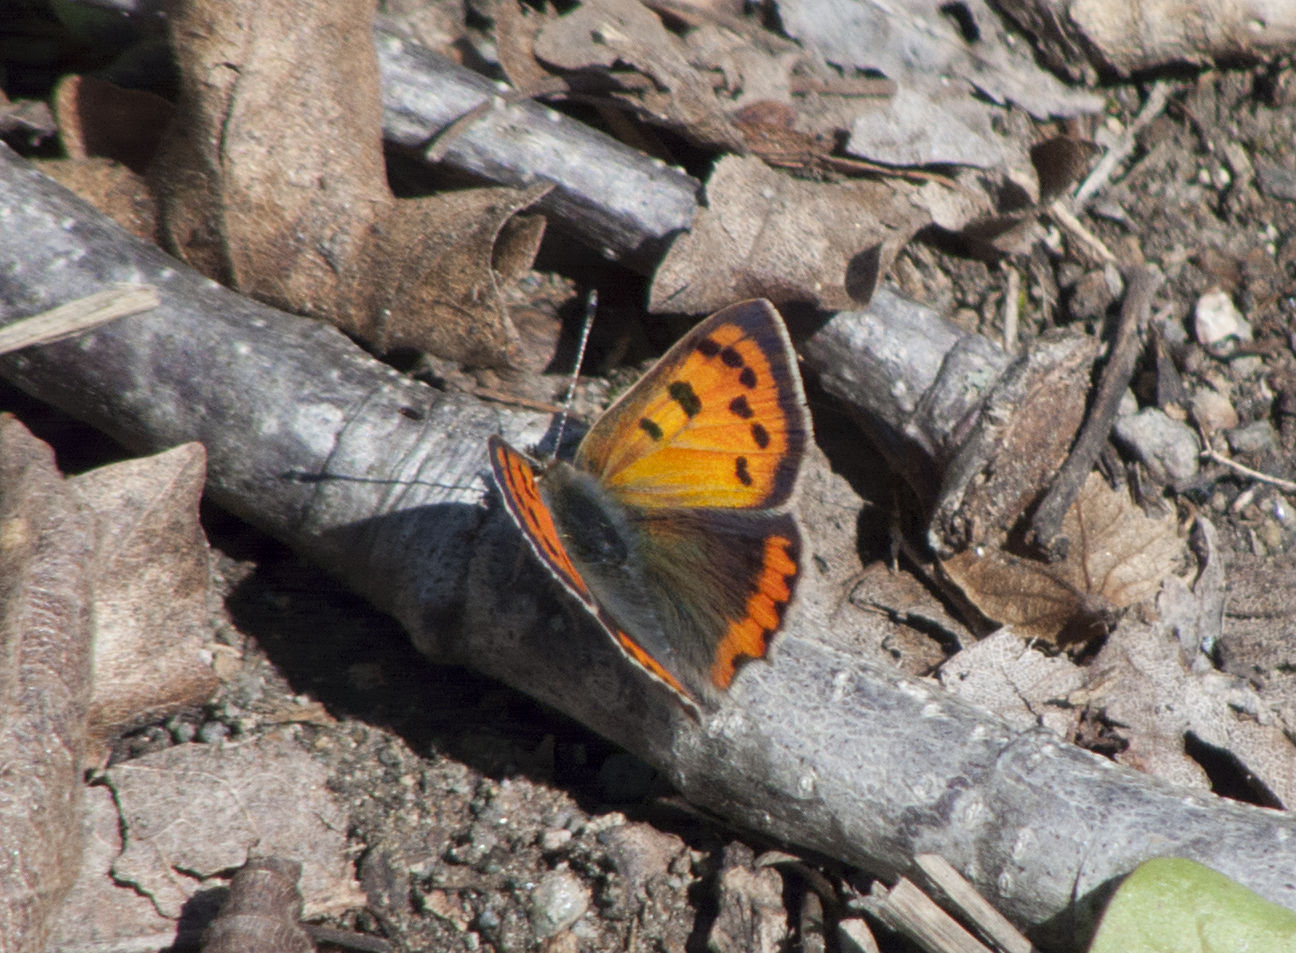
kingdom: Animalia
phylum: Arthropoda
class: Insecta
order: Lepidoptera
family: Lycaenidae
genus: Lycaena
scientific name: Lycaena phlaeas
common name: Small copper
